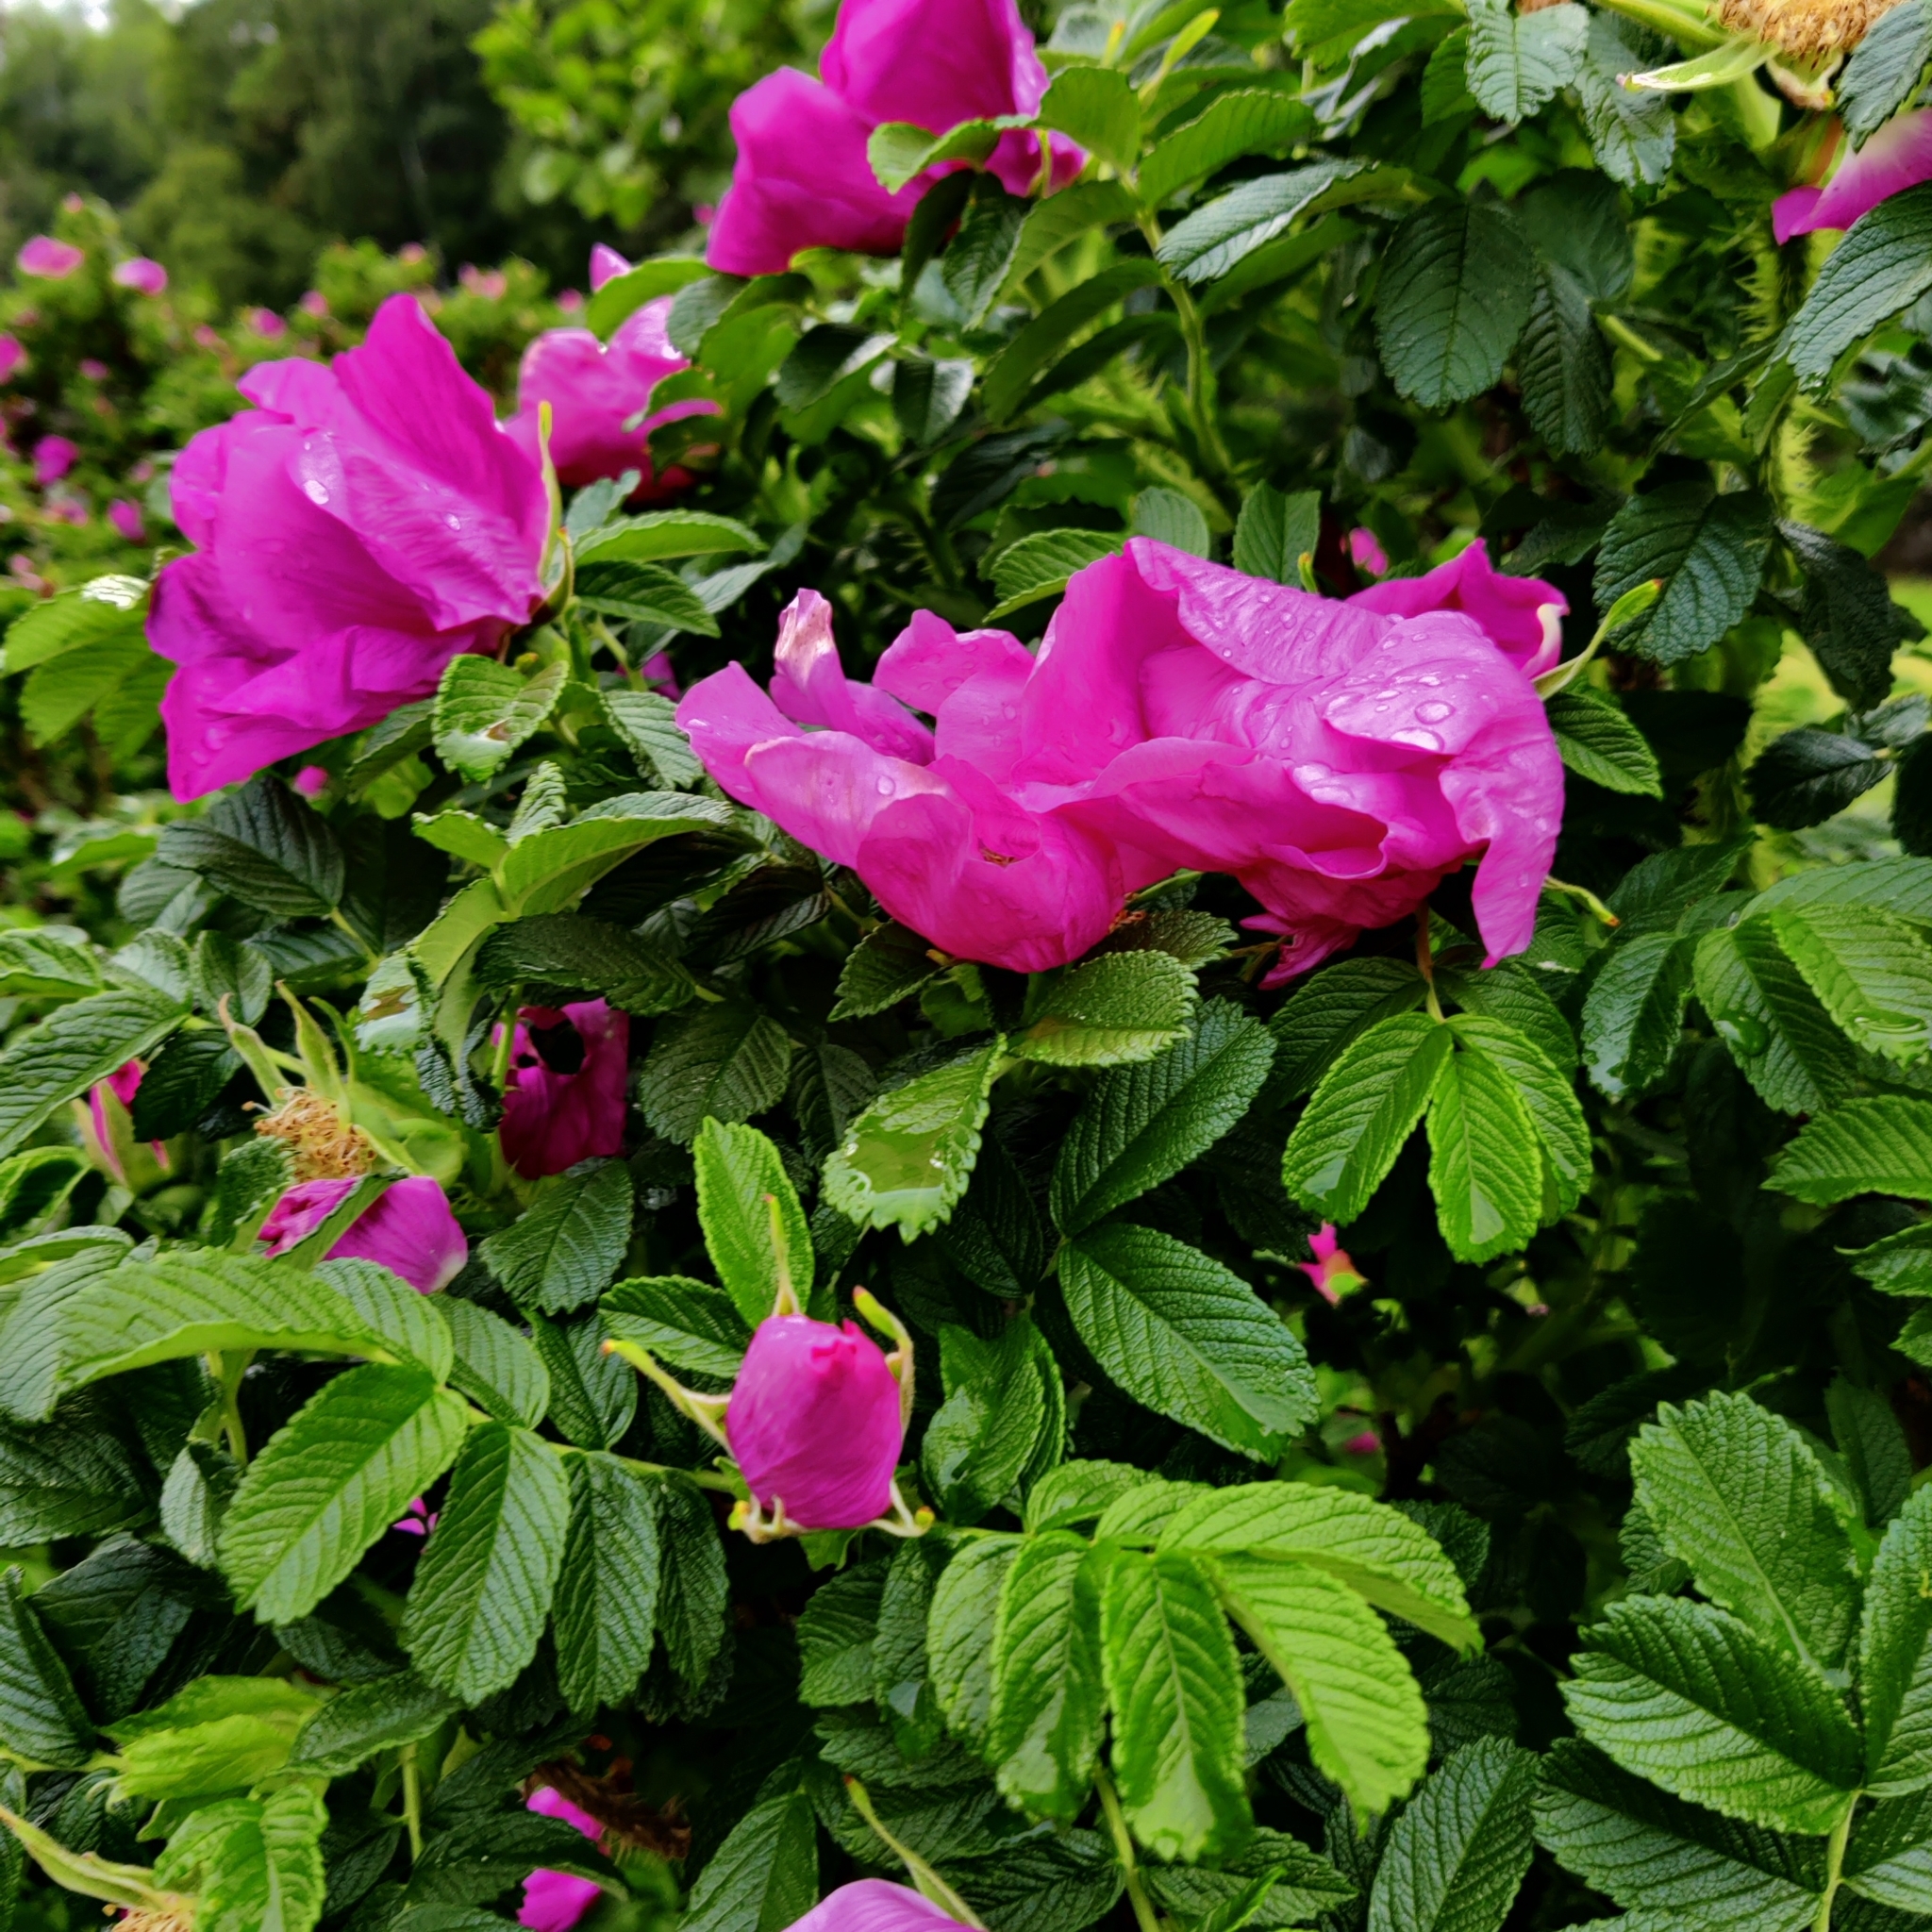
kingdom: Plantae
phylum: Tracheophyta
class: Magnoliopsida
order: Rosales
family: Rosaceae
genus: Rosa
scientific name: Rosa rugosa
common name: Japanese rose
